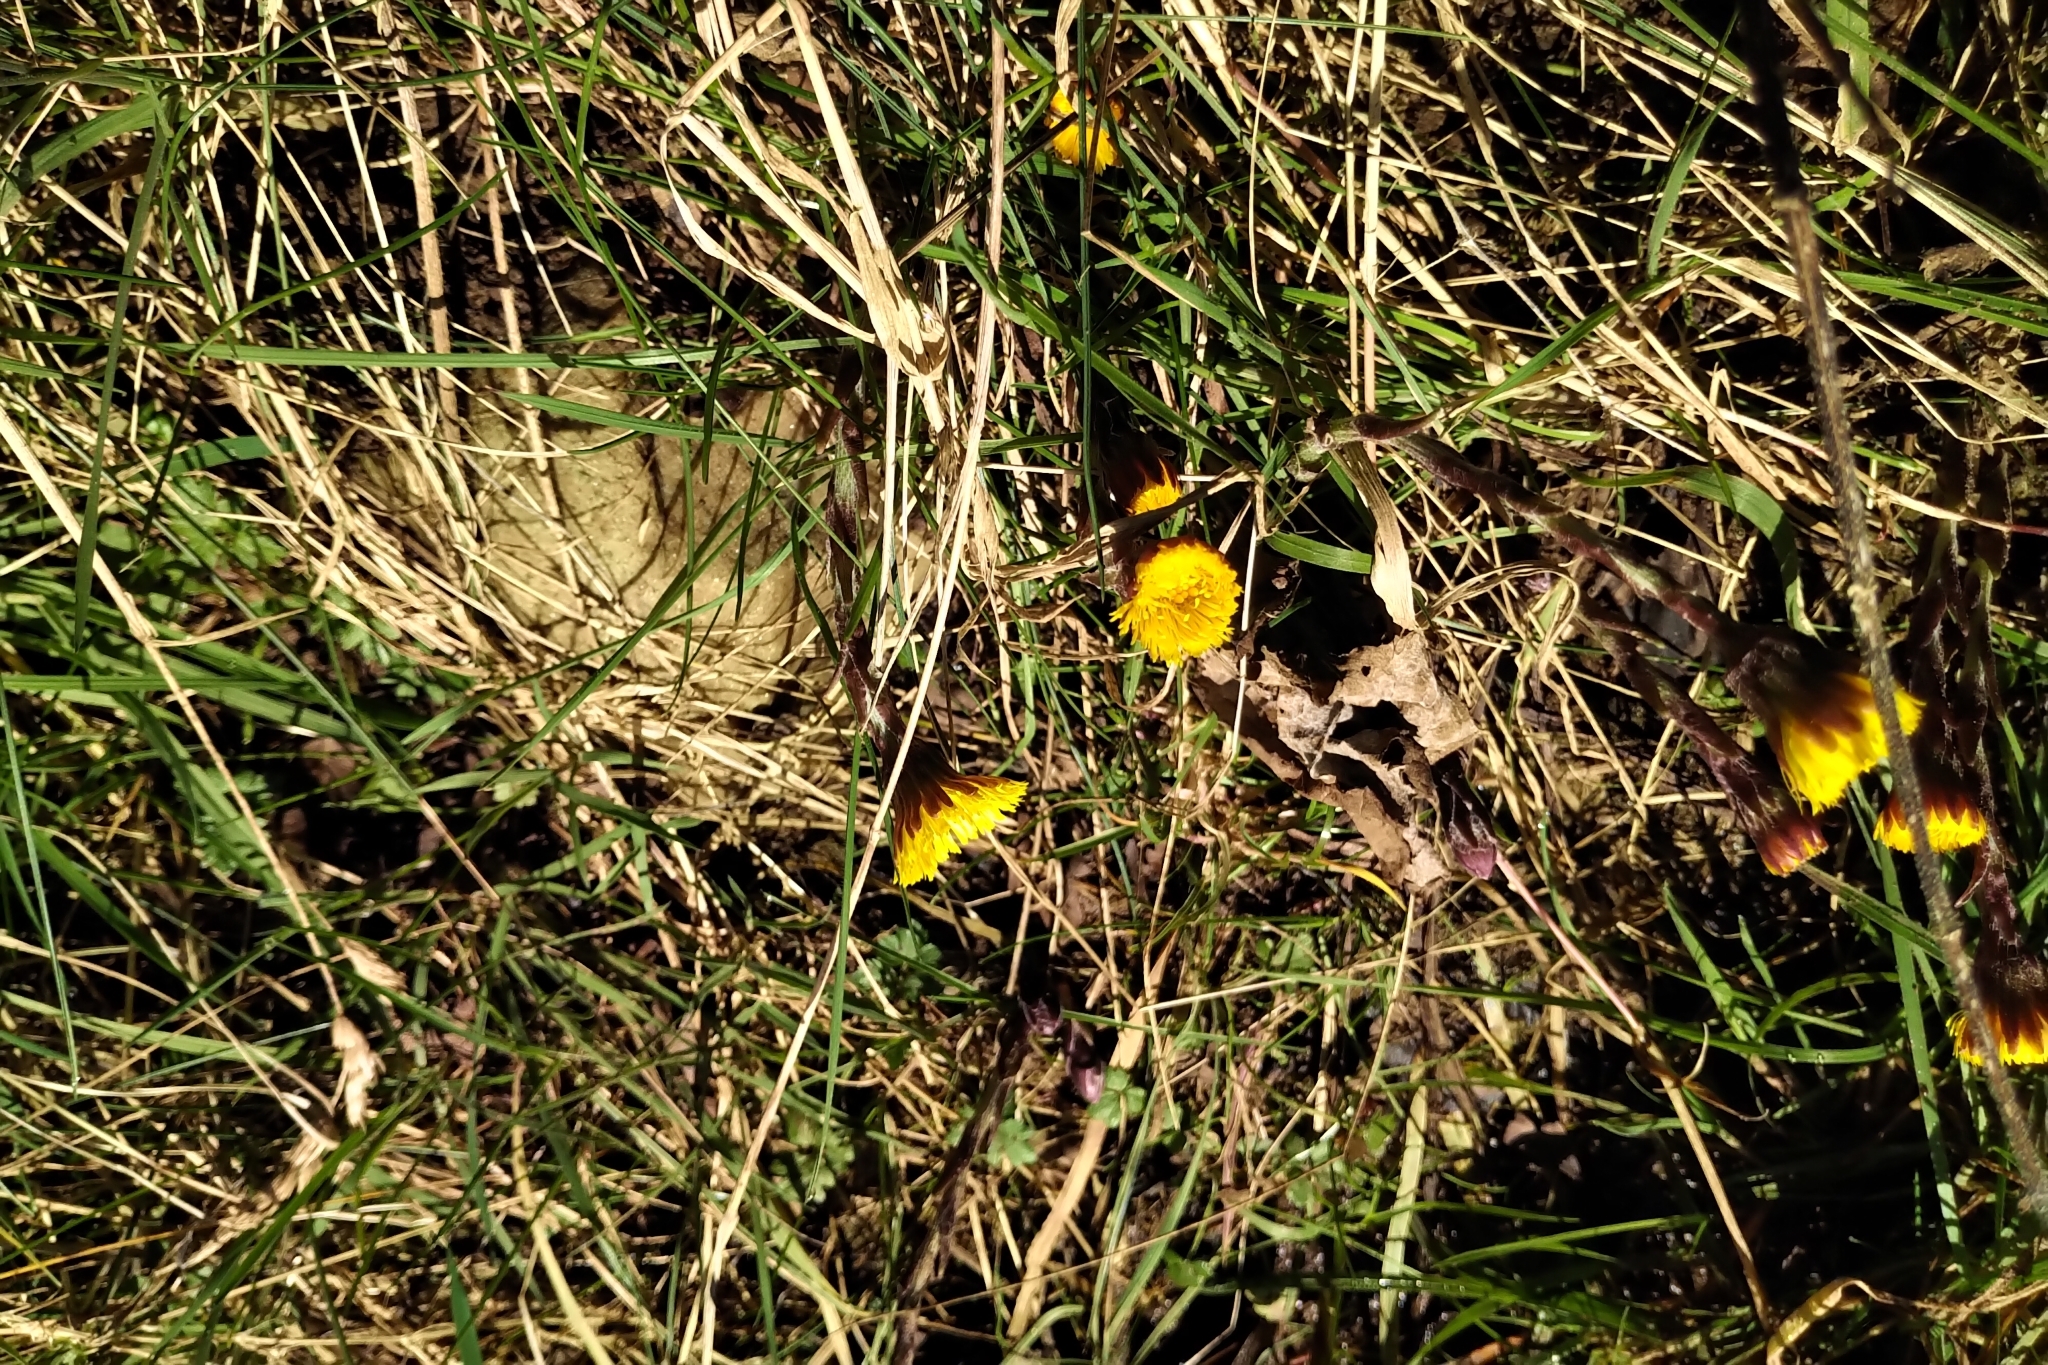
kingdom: Plantae
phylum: Tracheophyta
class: Magnoliopsida
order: Asterales
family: Asteraceae
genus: Tussilago
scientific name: Tussilago farfara
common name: Coltsfoot
